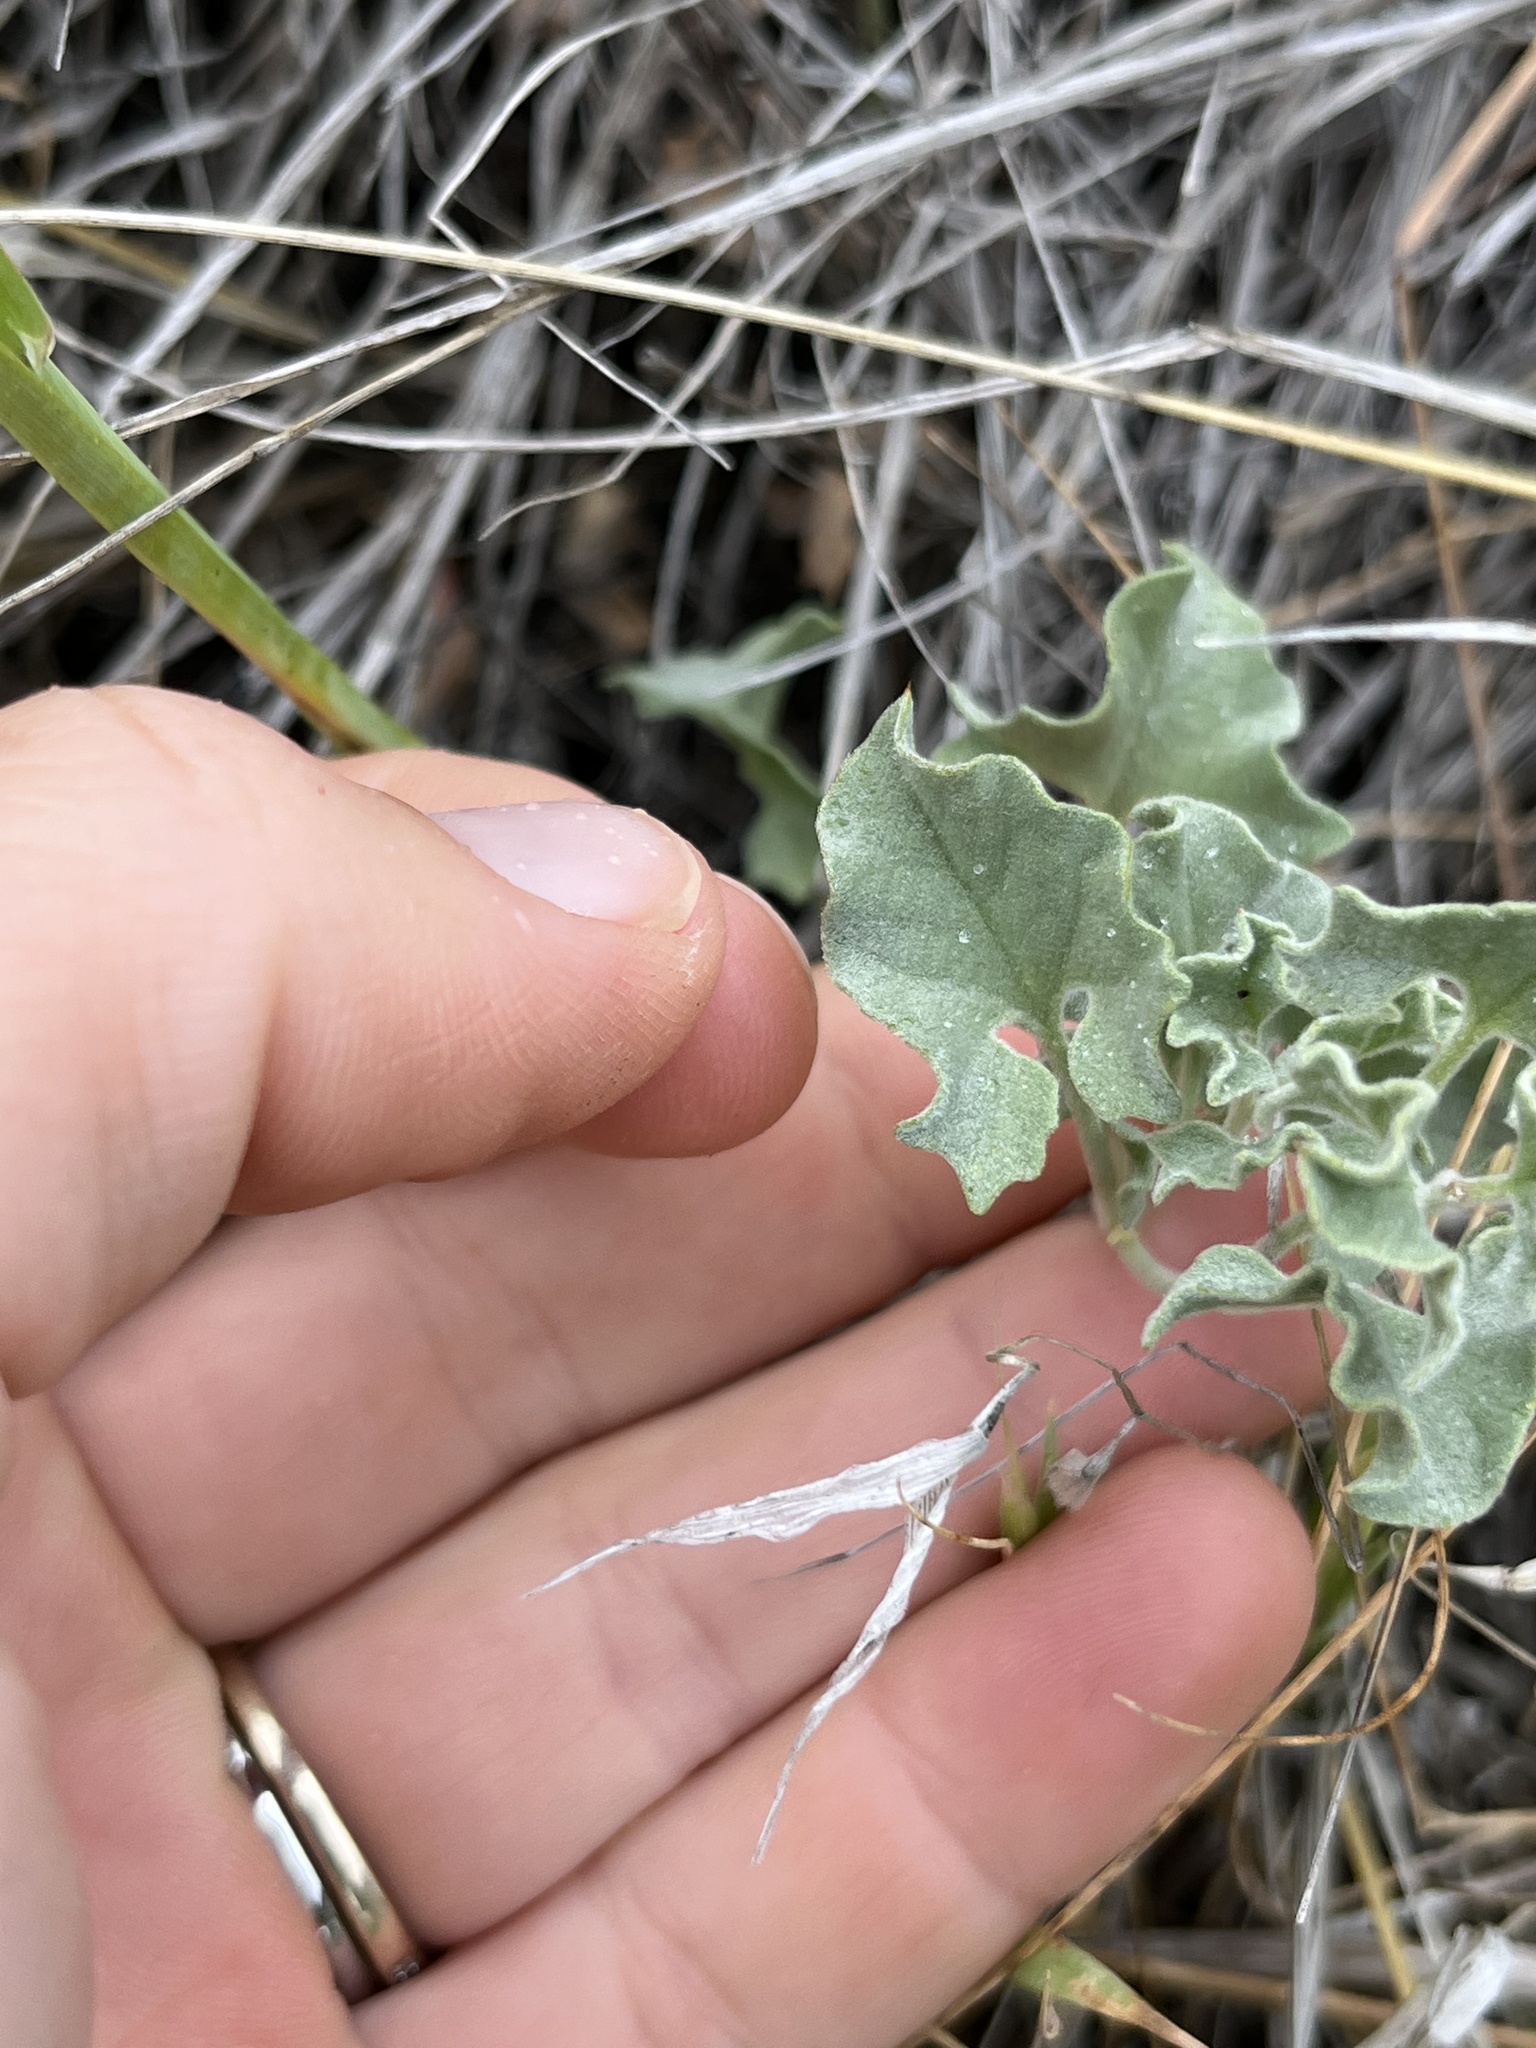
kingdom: Plantae
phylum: Tracheophyta
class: Magnoliopsida
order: Solanales
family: Convolvulaceae
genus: Calystegia
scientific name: Calystegia collina
